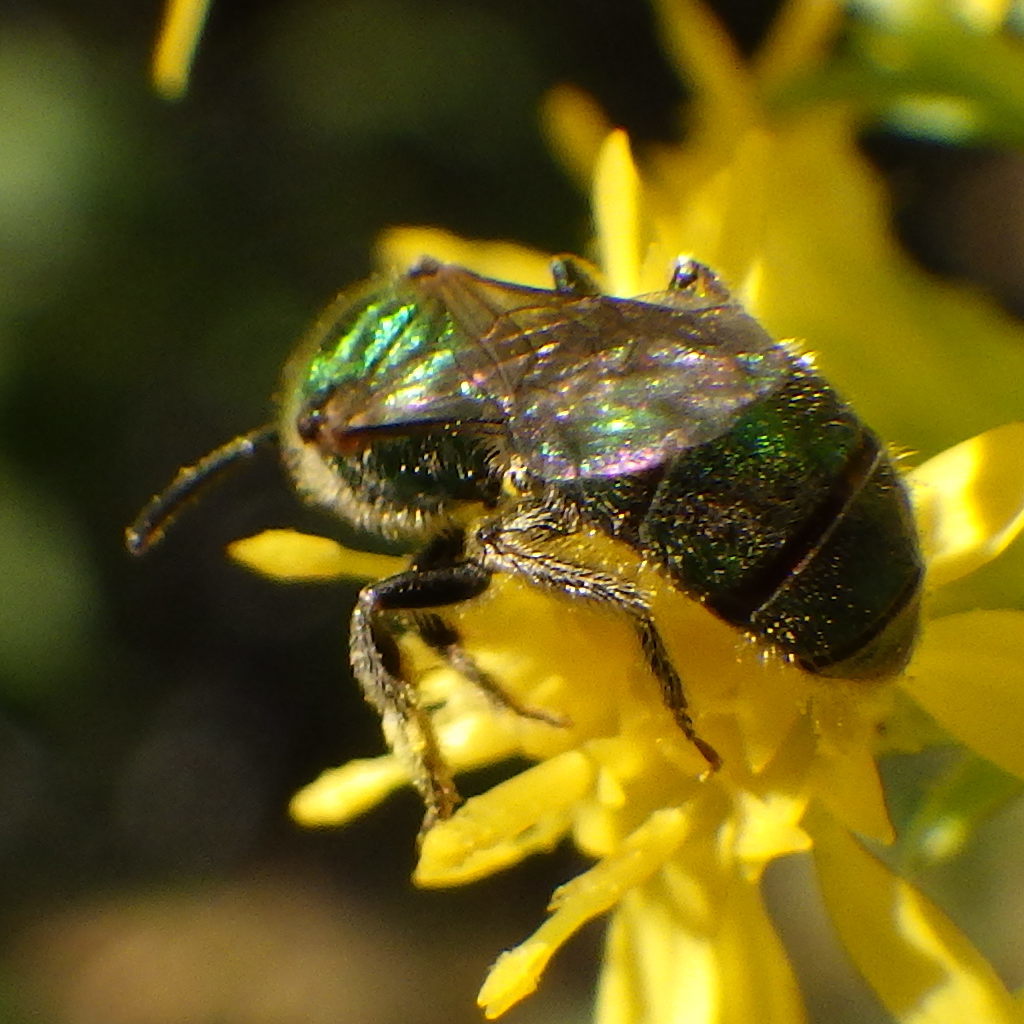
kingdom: Animalia
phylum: Arthropoda
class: Insecta
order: Hymenoptera
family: Halictidae
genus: Augochlorella
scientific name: Augochlorella aurata
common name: Golden sweat bee
